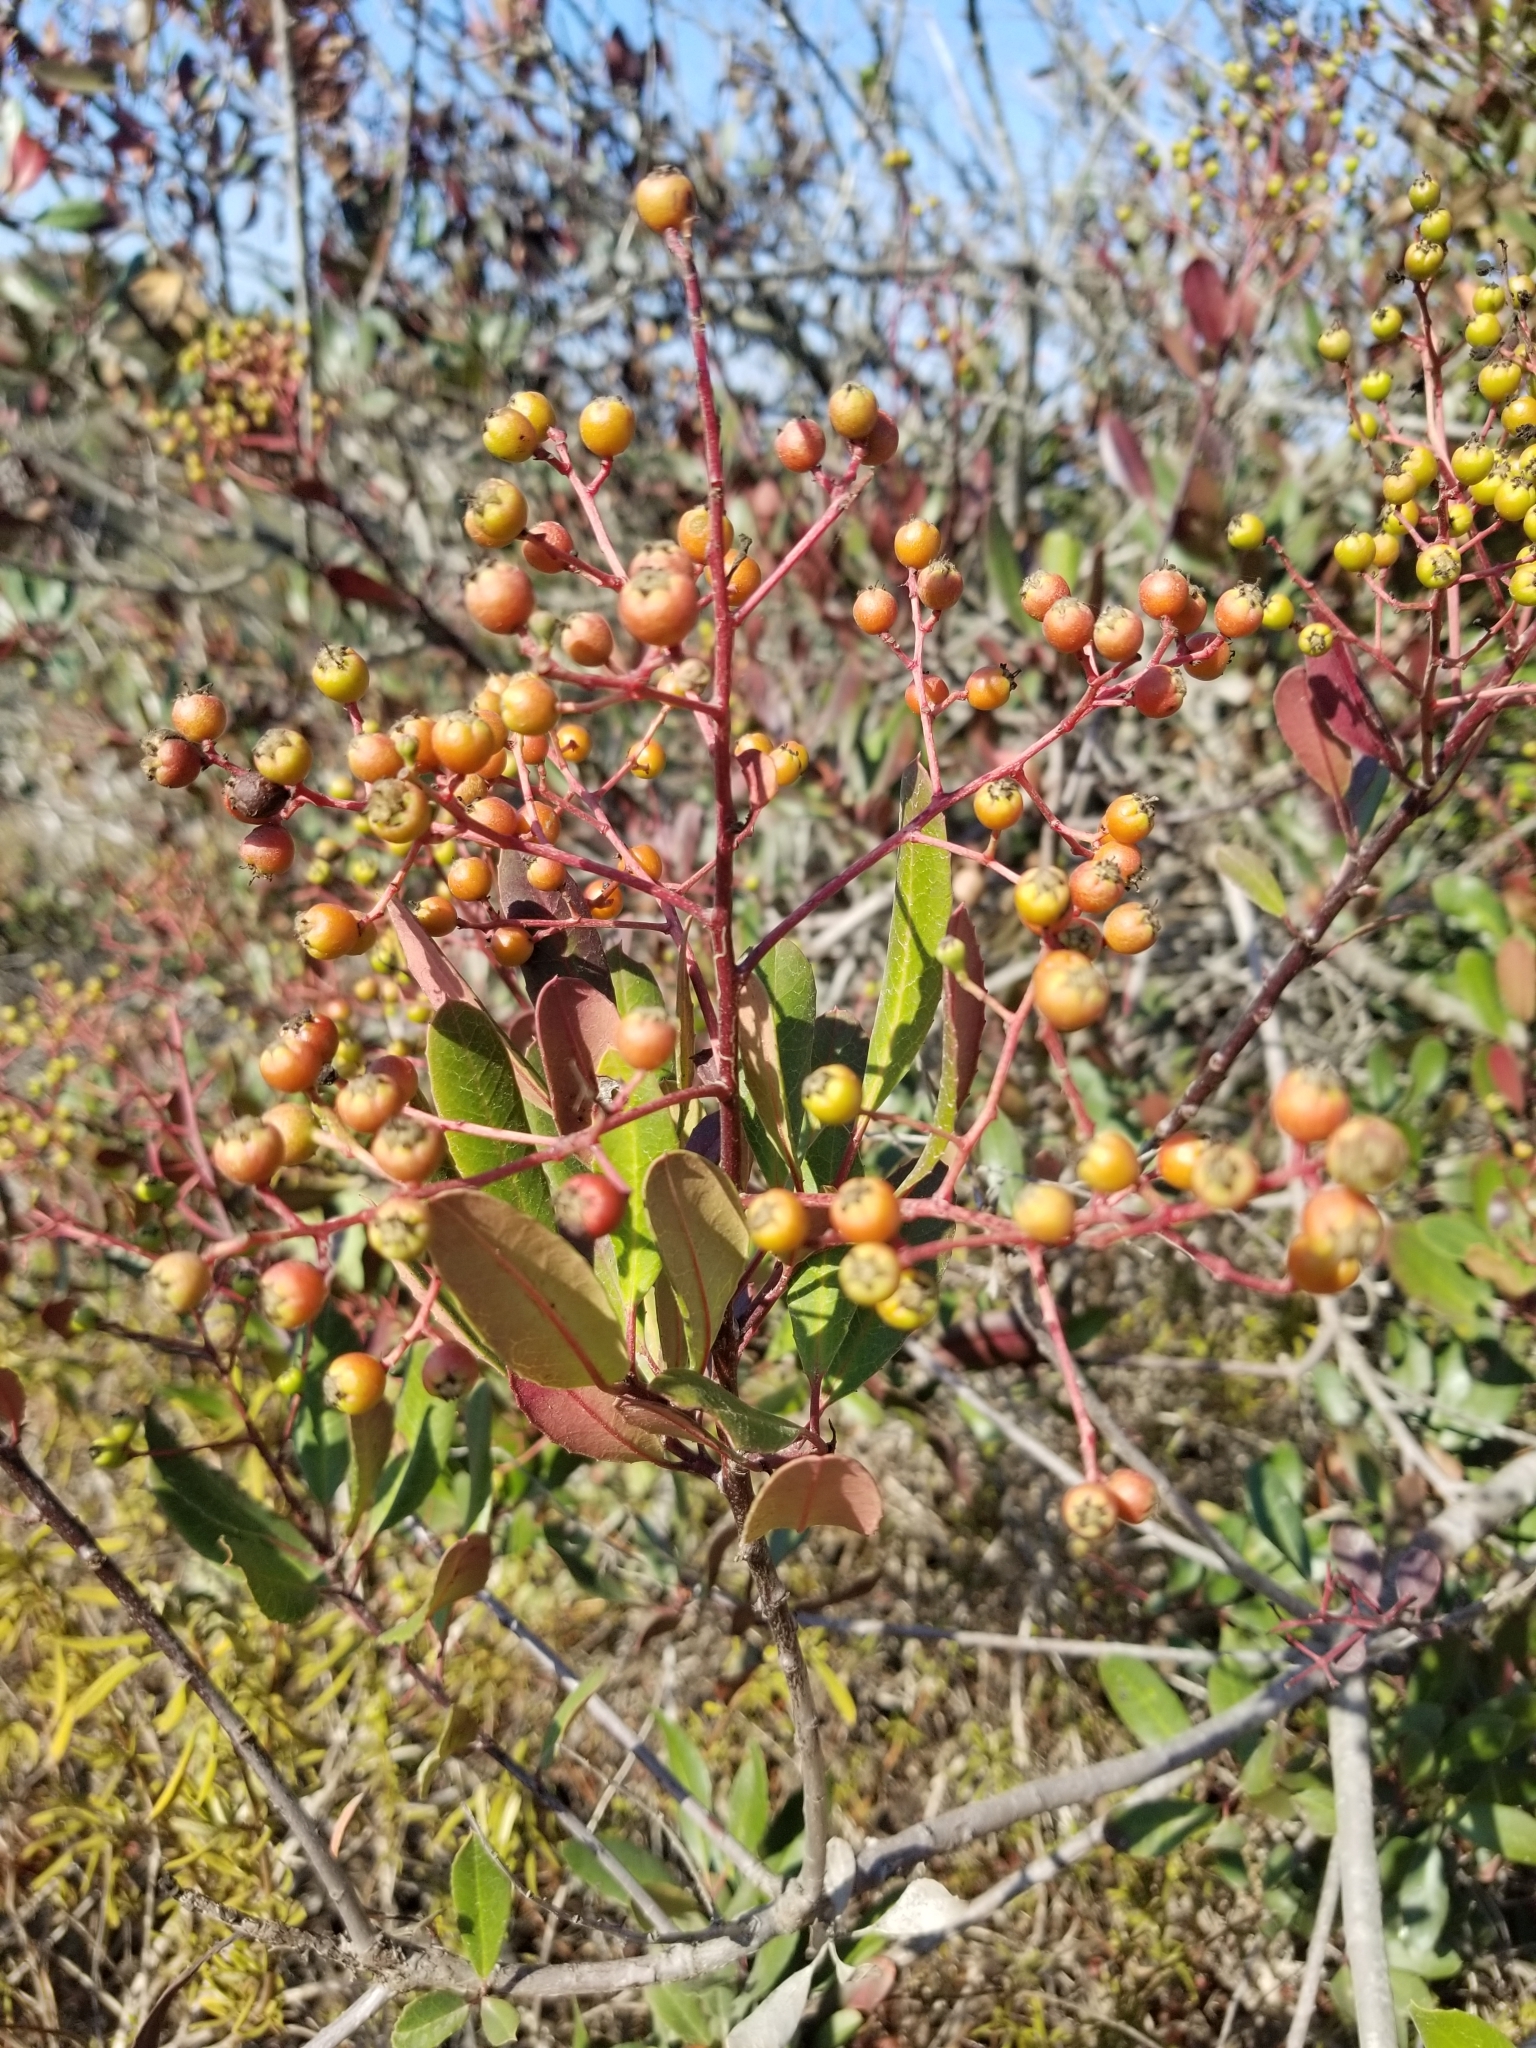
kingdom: Plantae
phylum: Tracheophyta
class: Magnoliopsida
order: Rosales
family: Rosaceae
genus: Heteromeles
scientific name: Heteromeles arbutifolia
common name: California-holly
